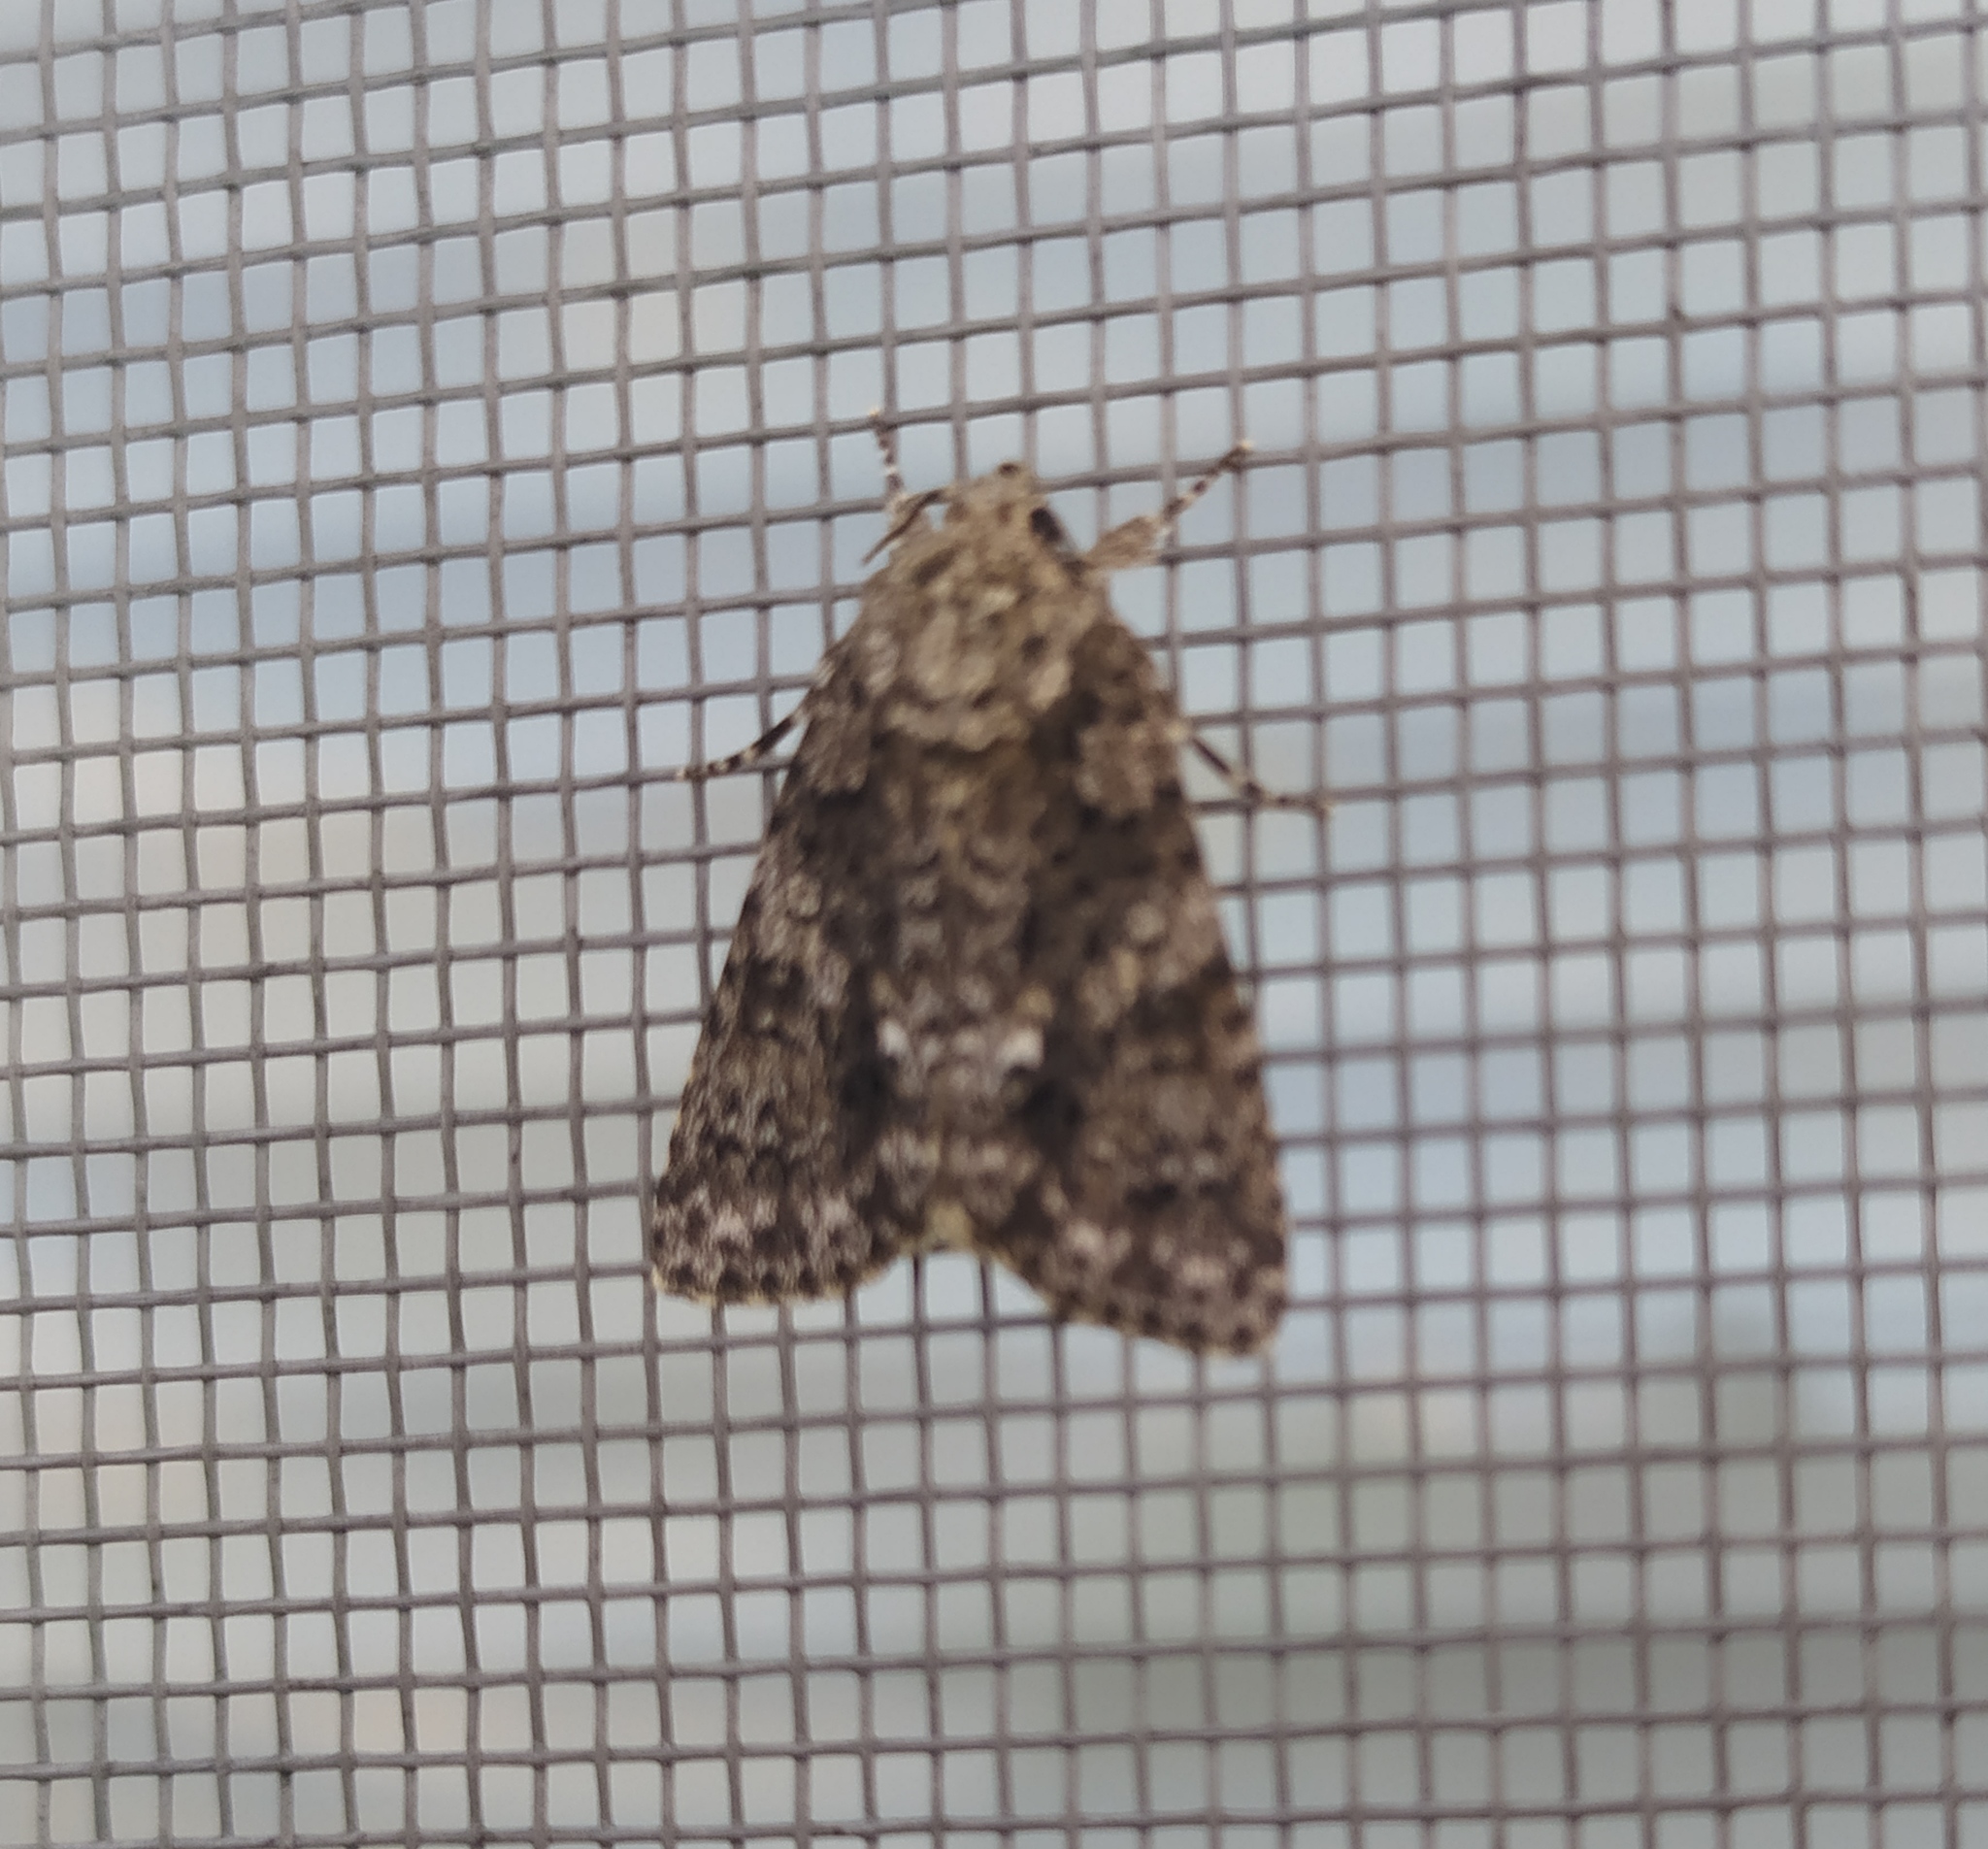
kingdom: Animalia
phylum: Arthropoda
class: Insecta
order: Lepidoptera
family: Noctuidae
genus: Acronicta
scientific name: Acronicta rumicis
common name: Knot grass
